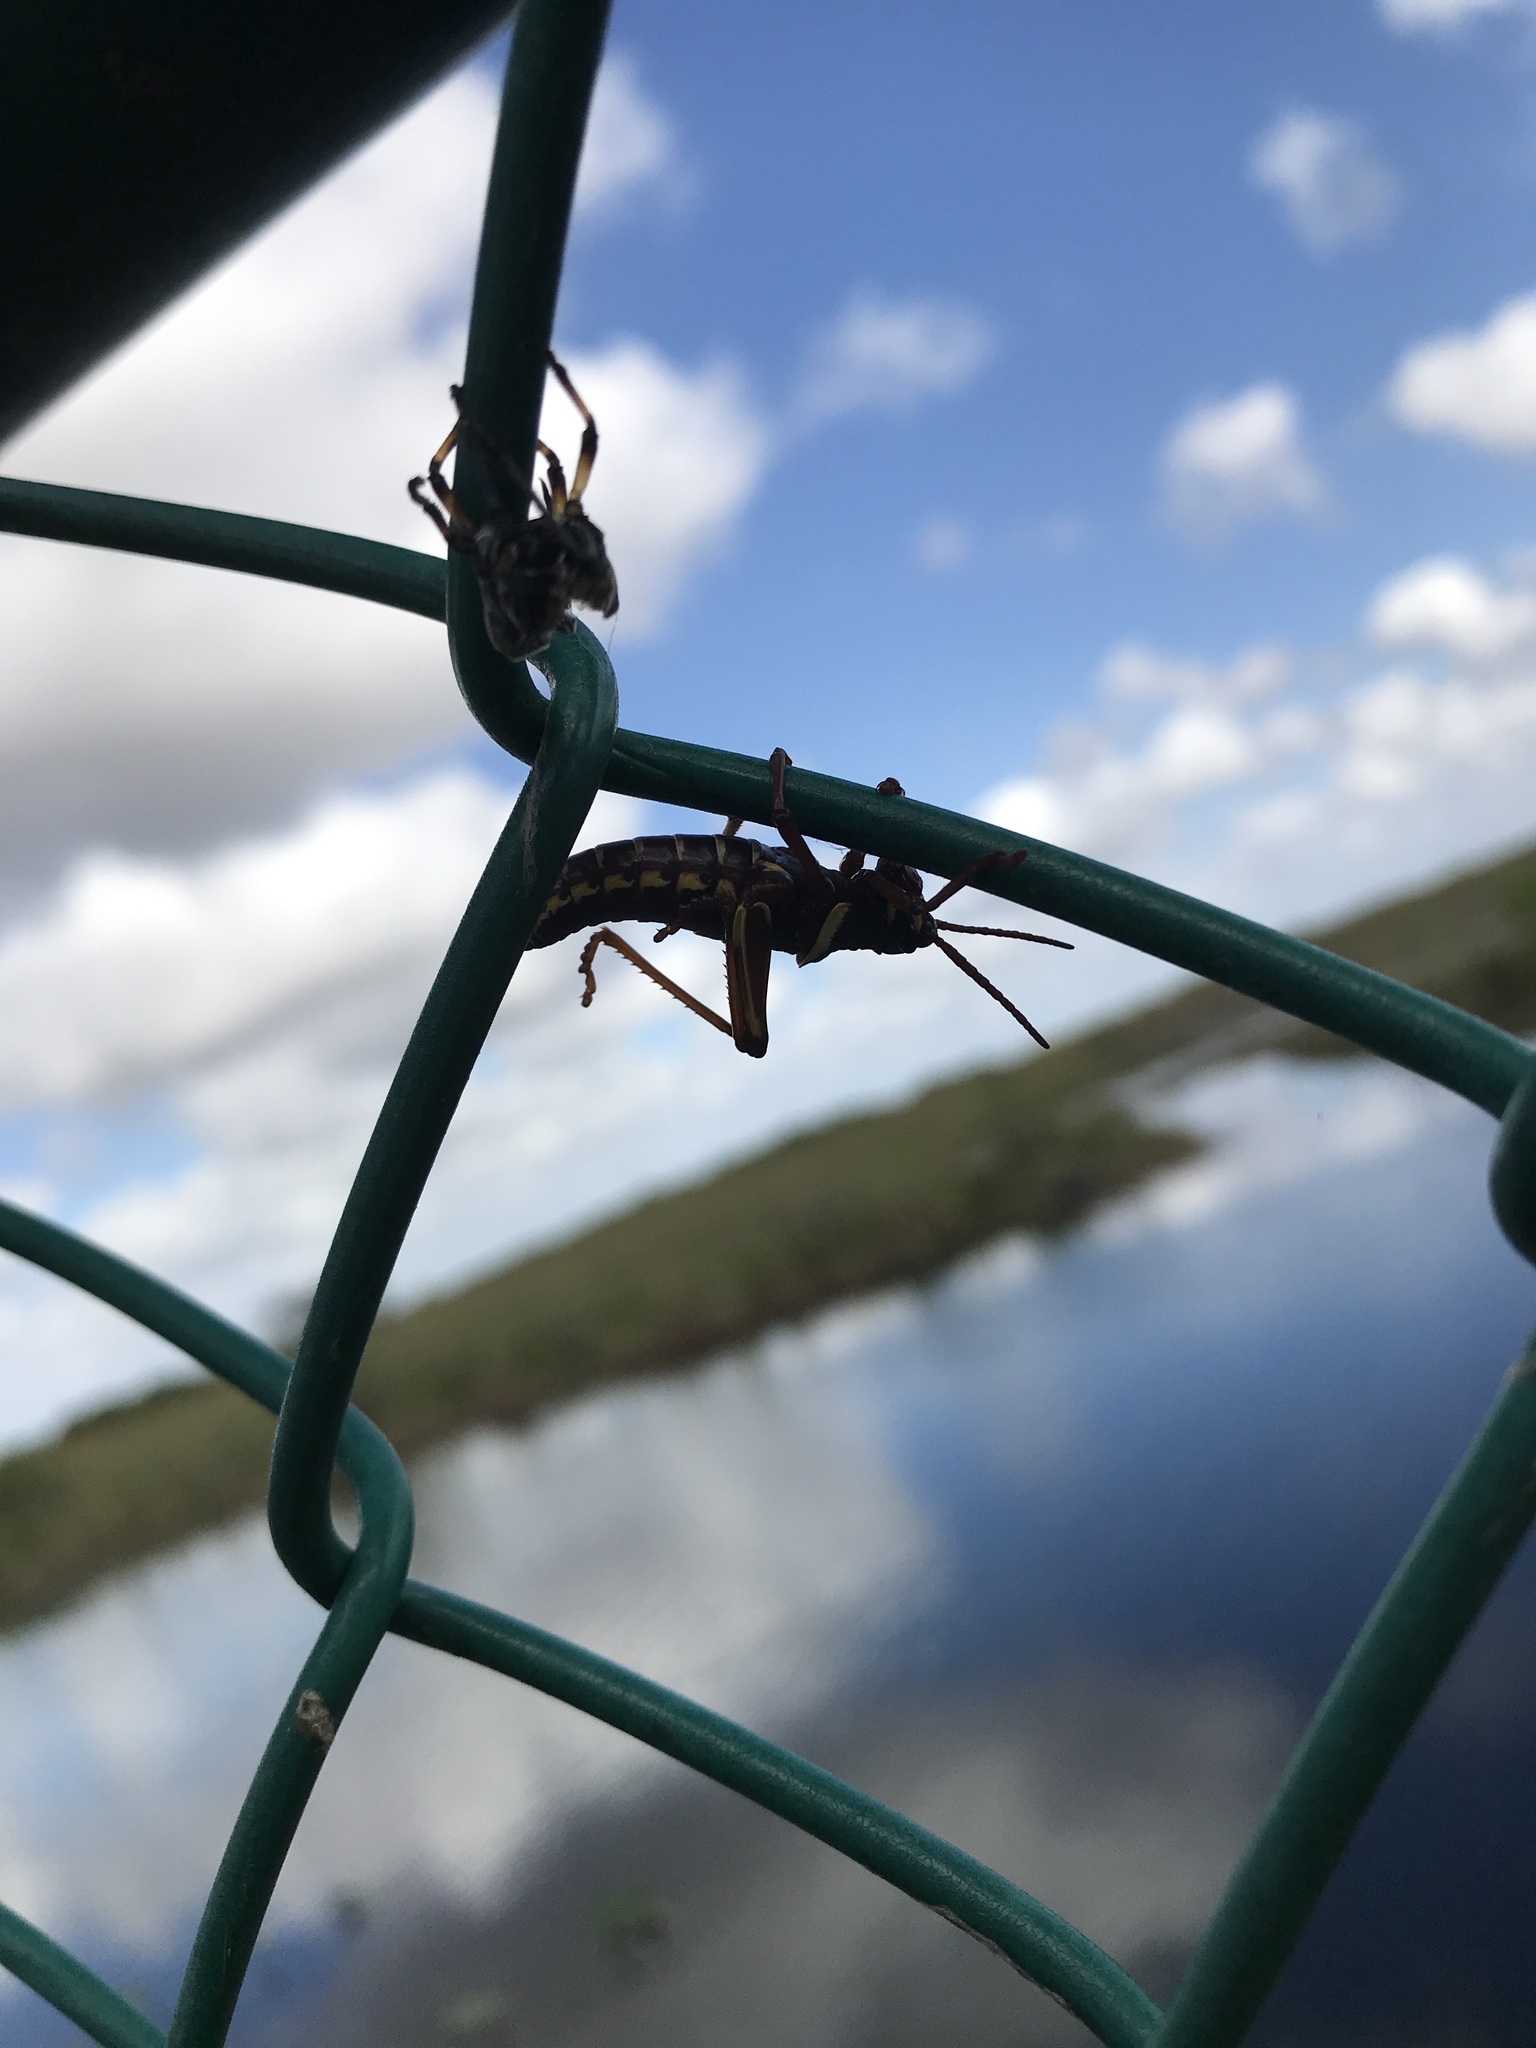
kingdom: Animalia
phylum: Arthropoda
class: Insecta
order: Orthoptera
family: Romaleidae
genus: Romalea
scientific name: Romalea microptera
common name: Eastern lubber grasshopper
